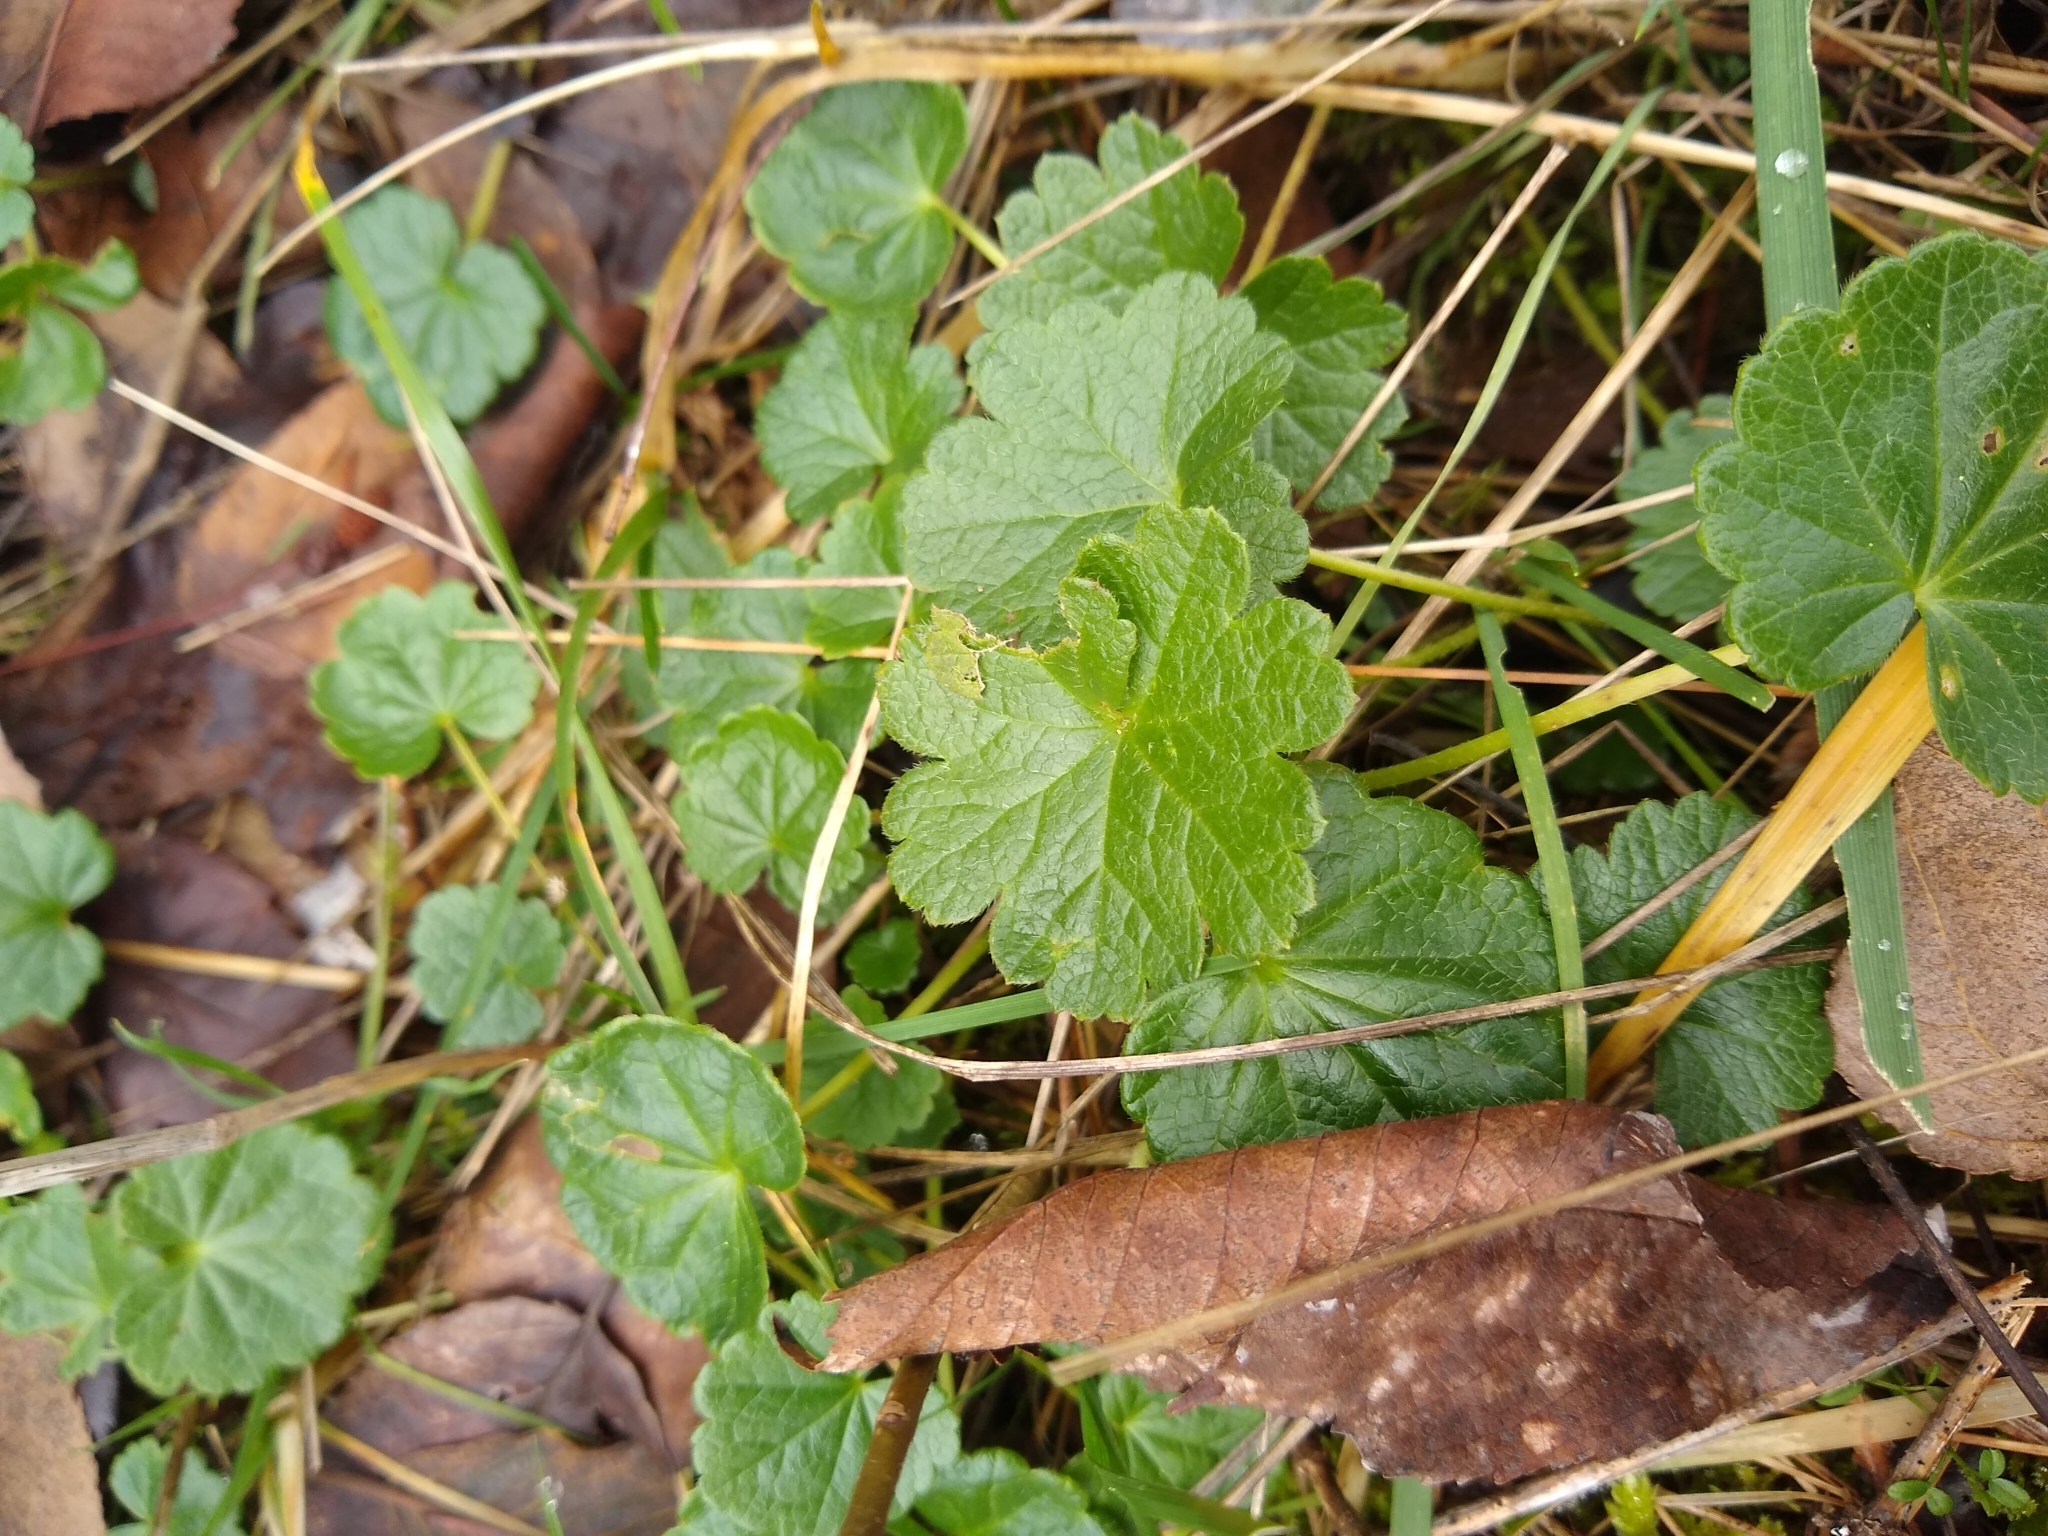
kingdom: Plantae
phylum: Tracheophyta
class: Magnoliopsida
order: Malvales
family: Malvaceae
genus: Sidalcea
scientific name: Sidalcea
